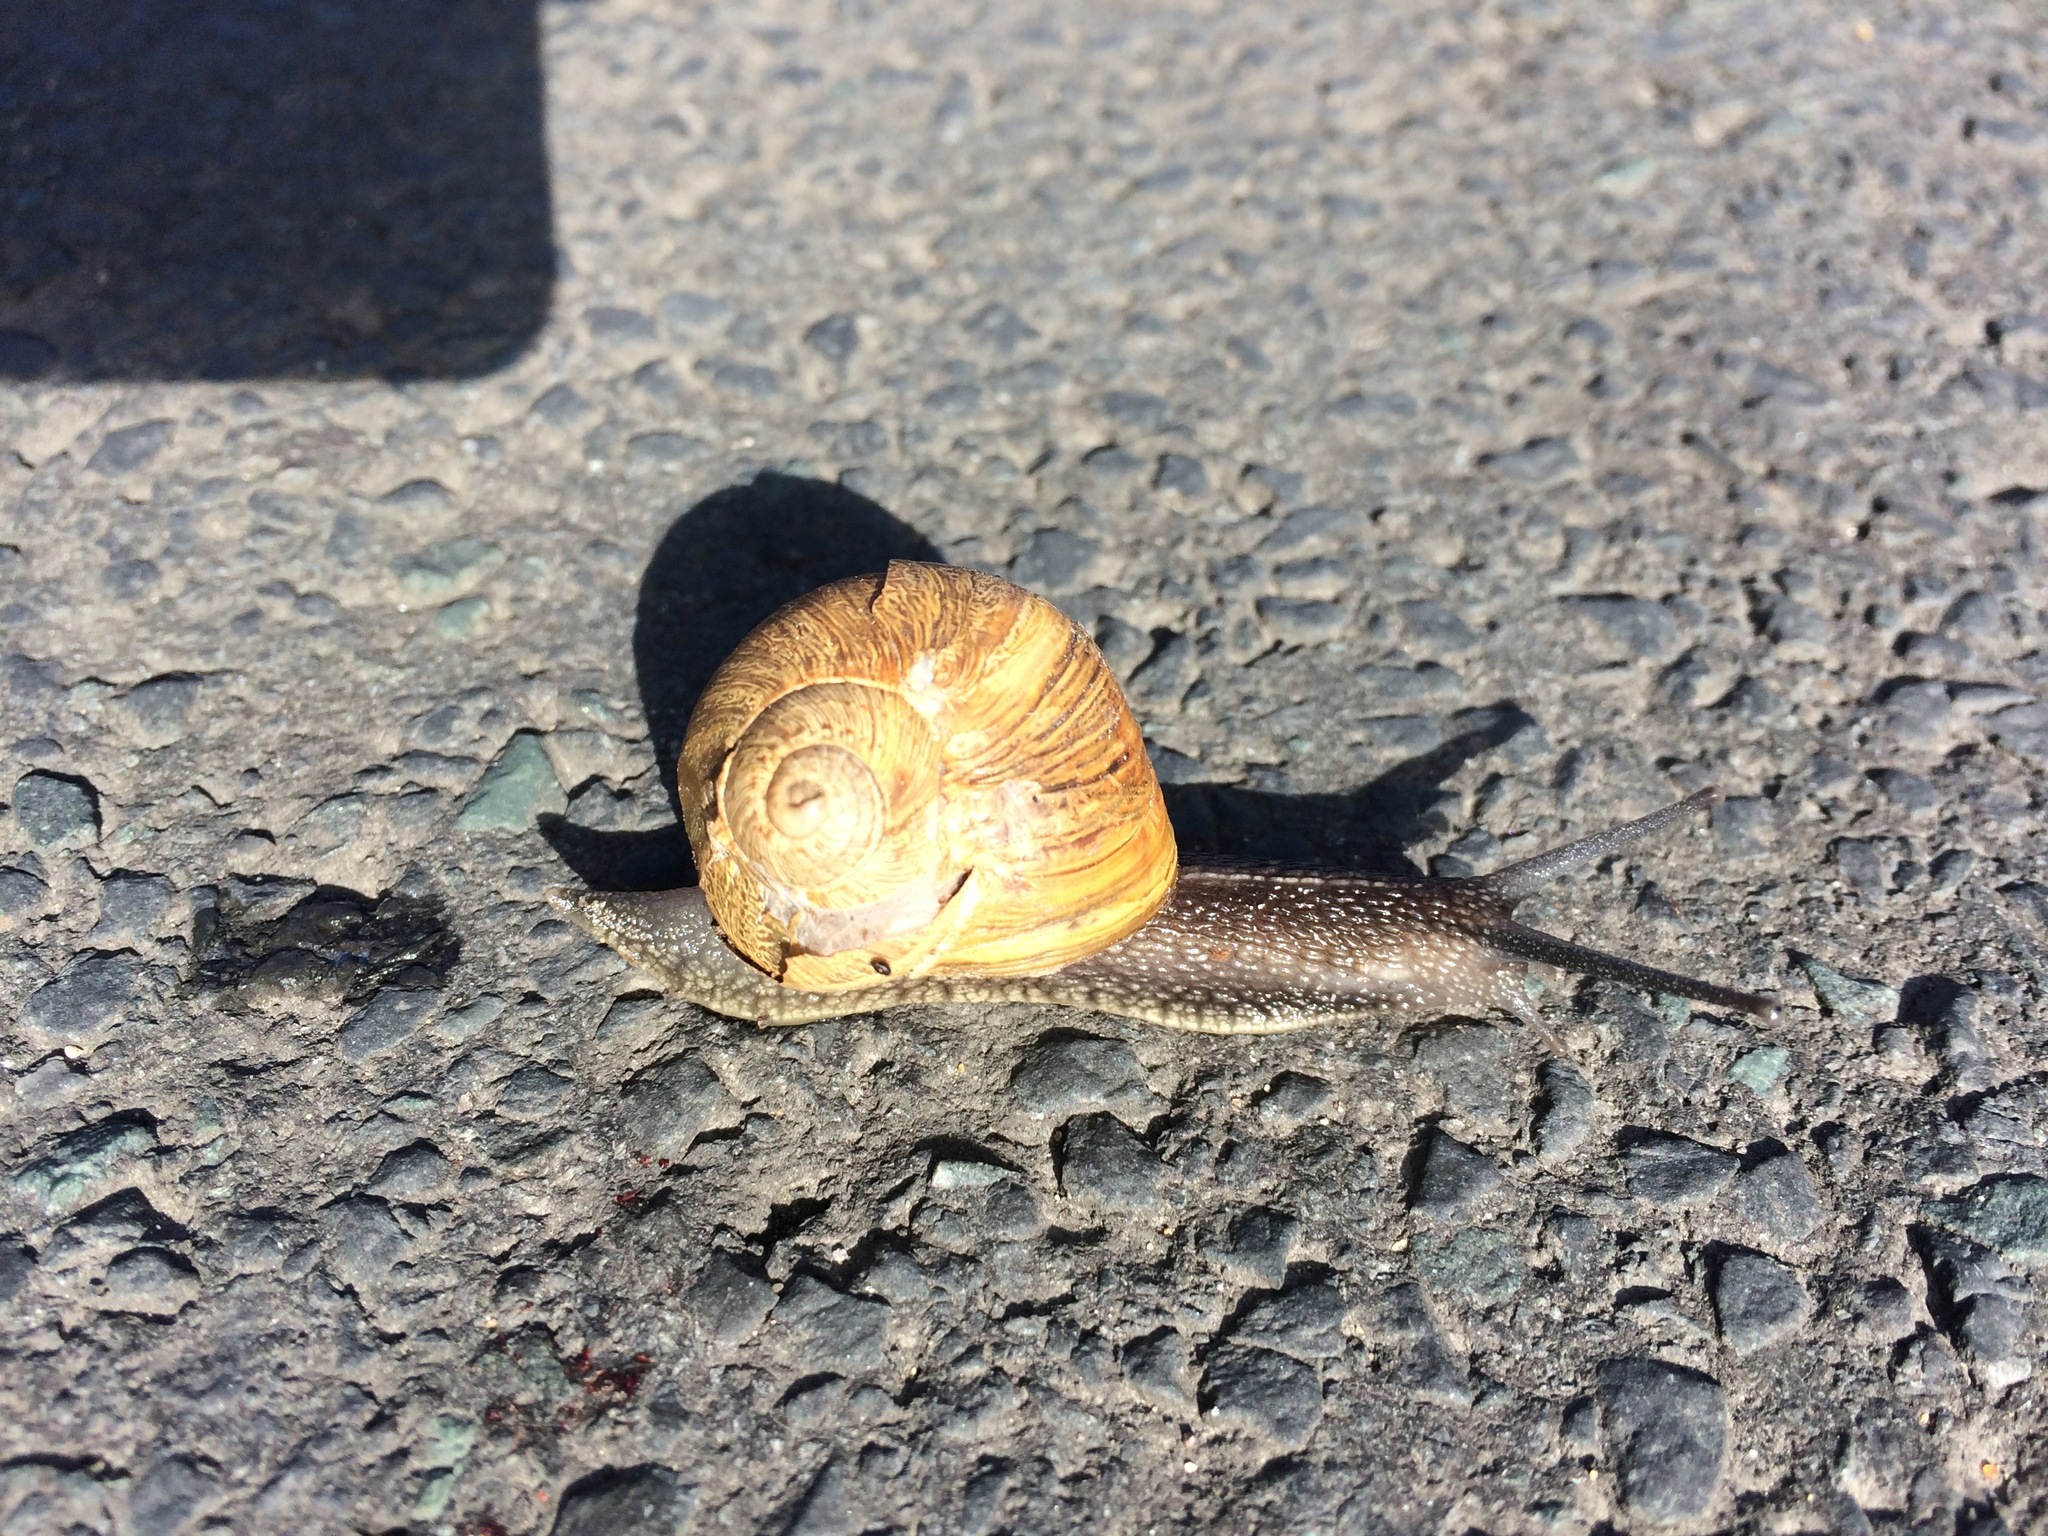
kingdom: Animalia
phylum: Mollusca
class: Gastropoda
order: Stylommatophora
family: Helicidae
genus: Cornu
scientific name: Cornu aspersum
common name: Brown garden snail
